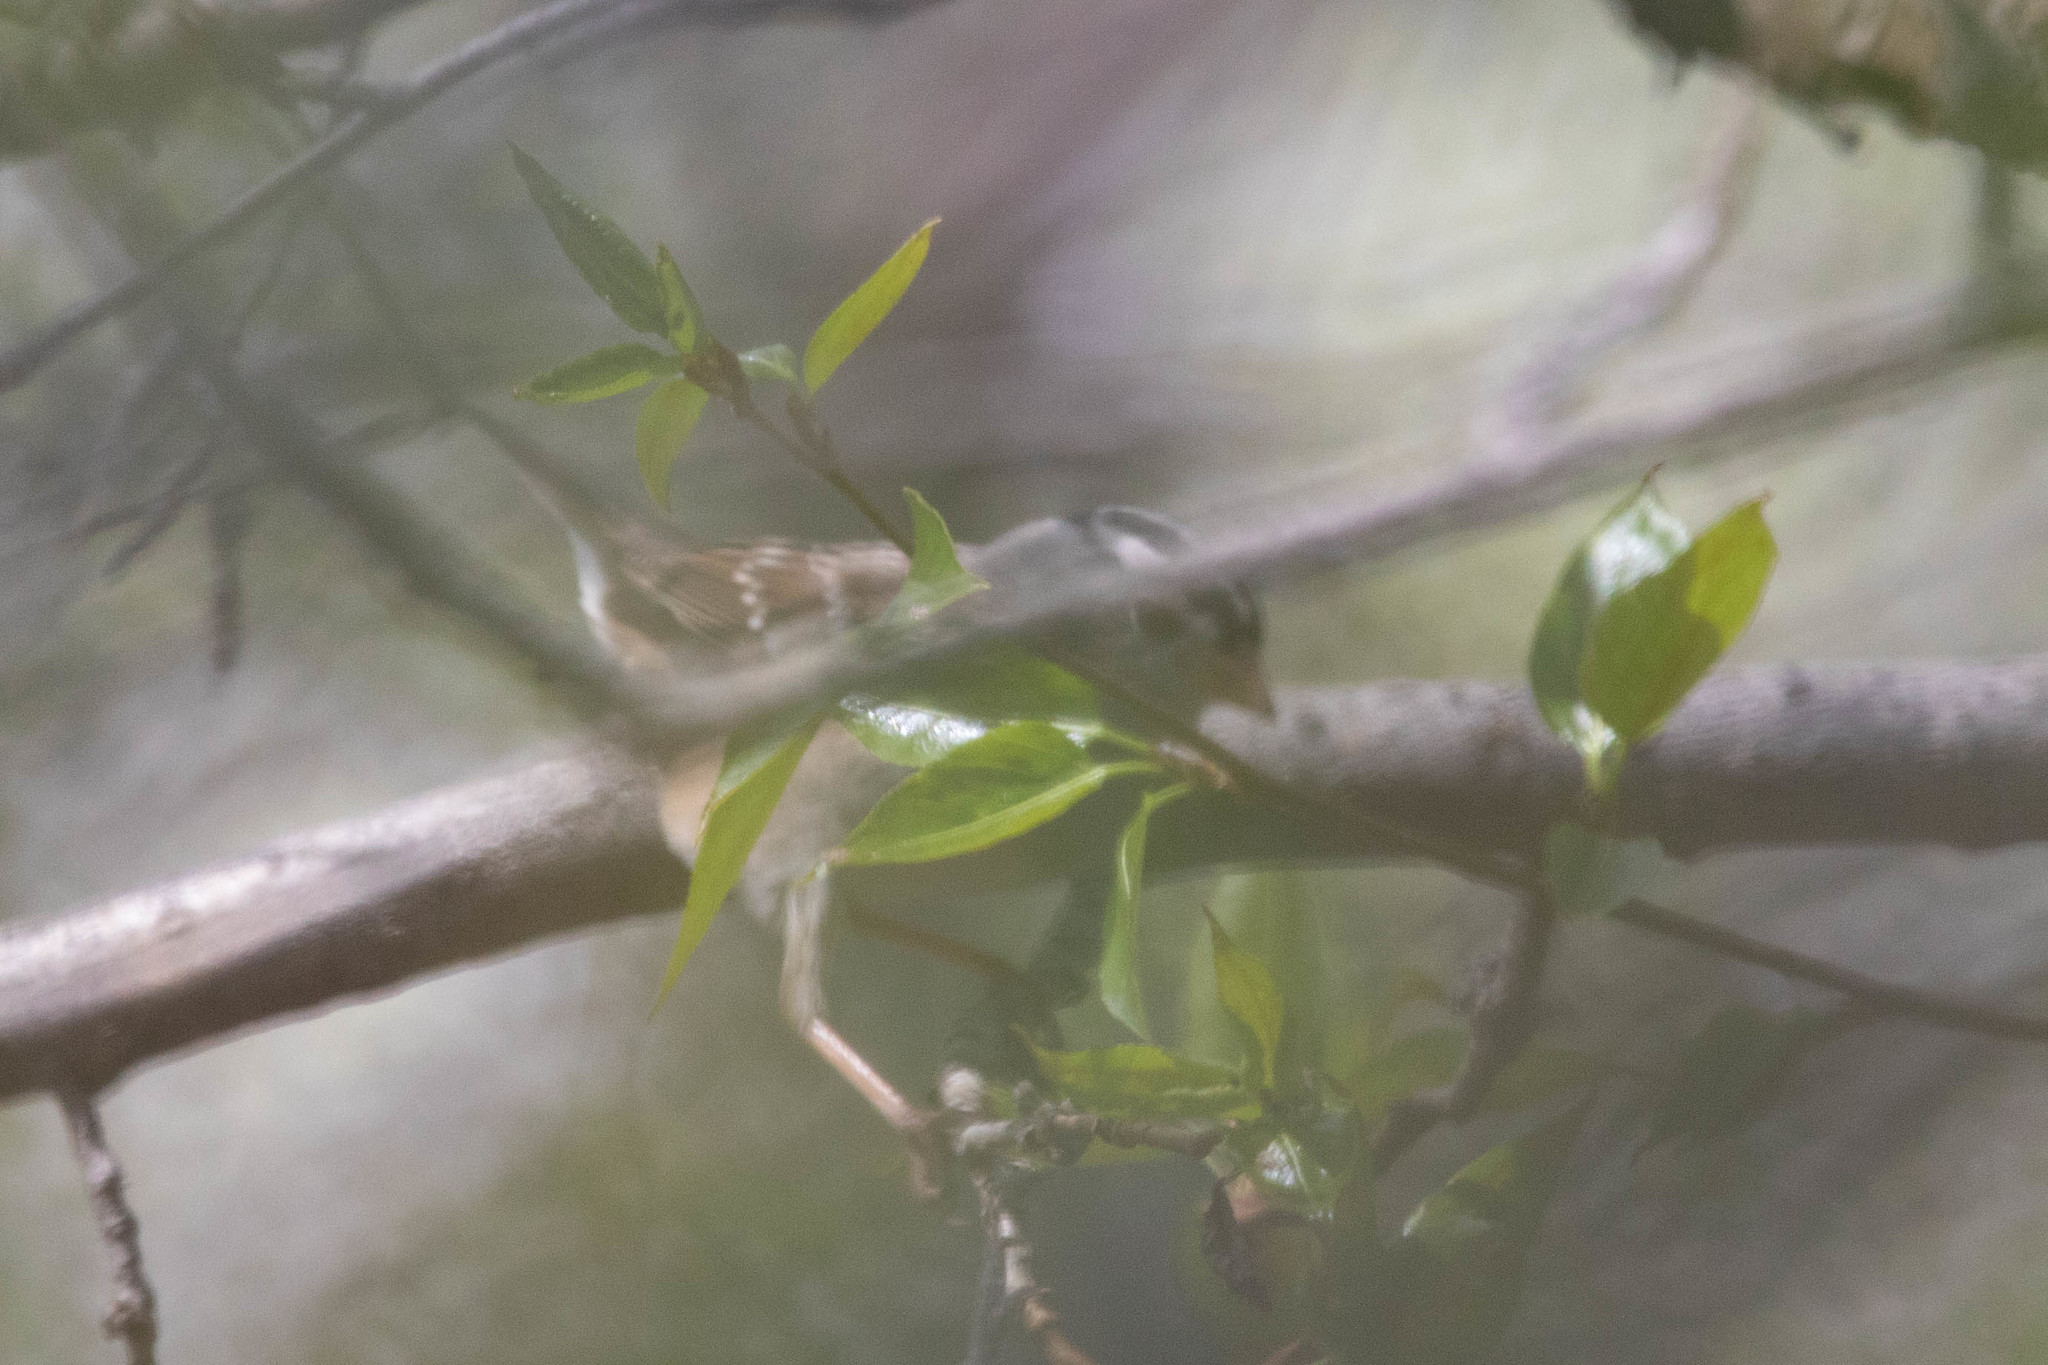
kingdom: Animalia
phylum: Chordata
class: Aves
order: Passeriformes
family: Passerellidae
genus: Zonotrichia
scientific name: Zonotrichia leucophrys
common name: White-crowned sparrow
